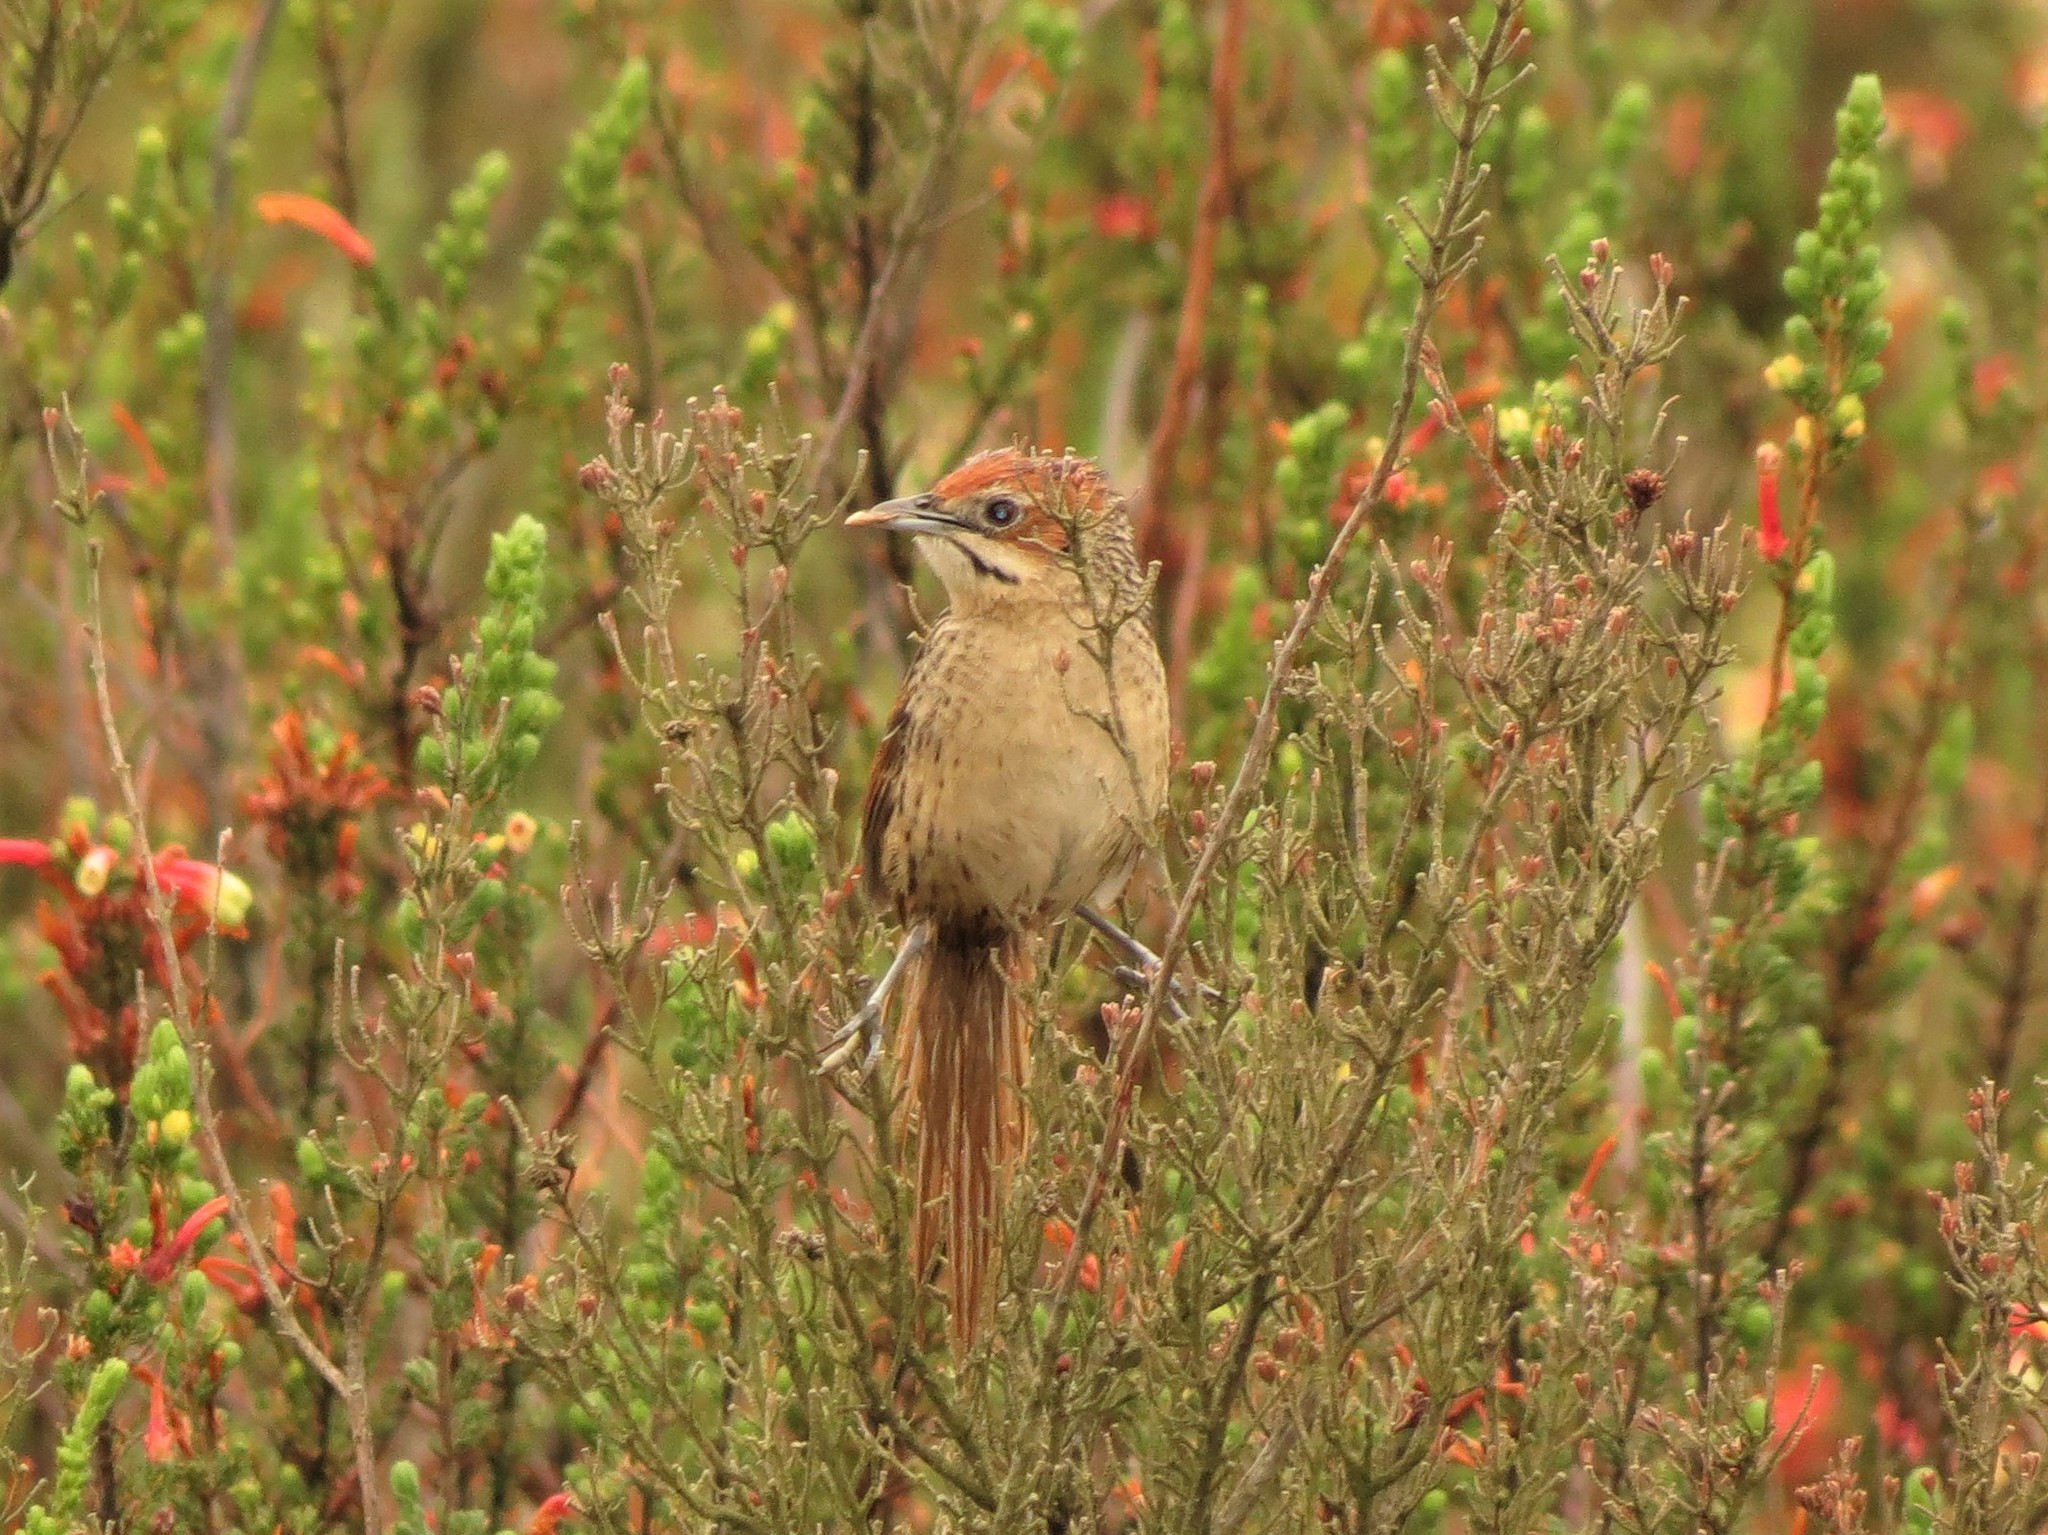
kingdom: Animalia
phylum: Chordata
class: Aves
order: Passeriformes
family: Macrosphenidae
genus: Sphenoeacus
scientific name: Sphenoeacus afer
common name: Cape grassbird
